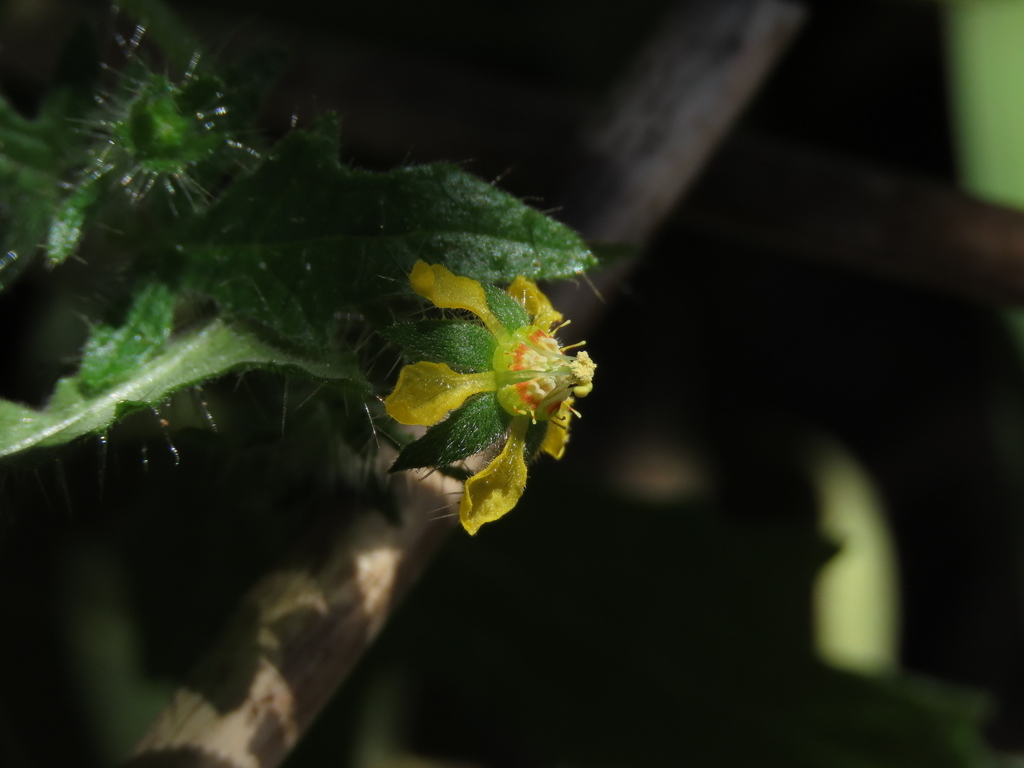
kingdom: Plantae
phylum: Tracheophyta
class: Magnoliopsida
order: Cornales
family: Loasaceae
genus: Loasa
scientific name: Loasa mollensis
